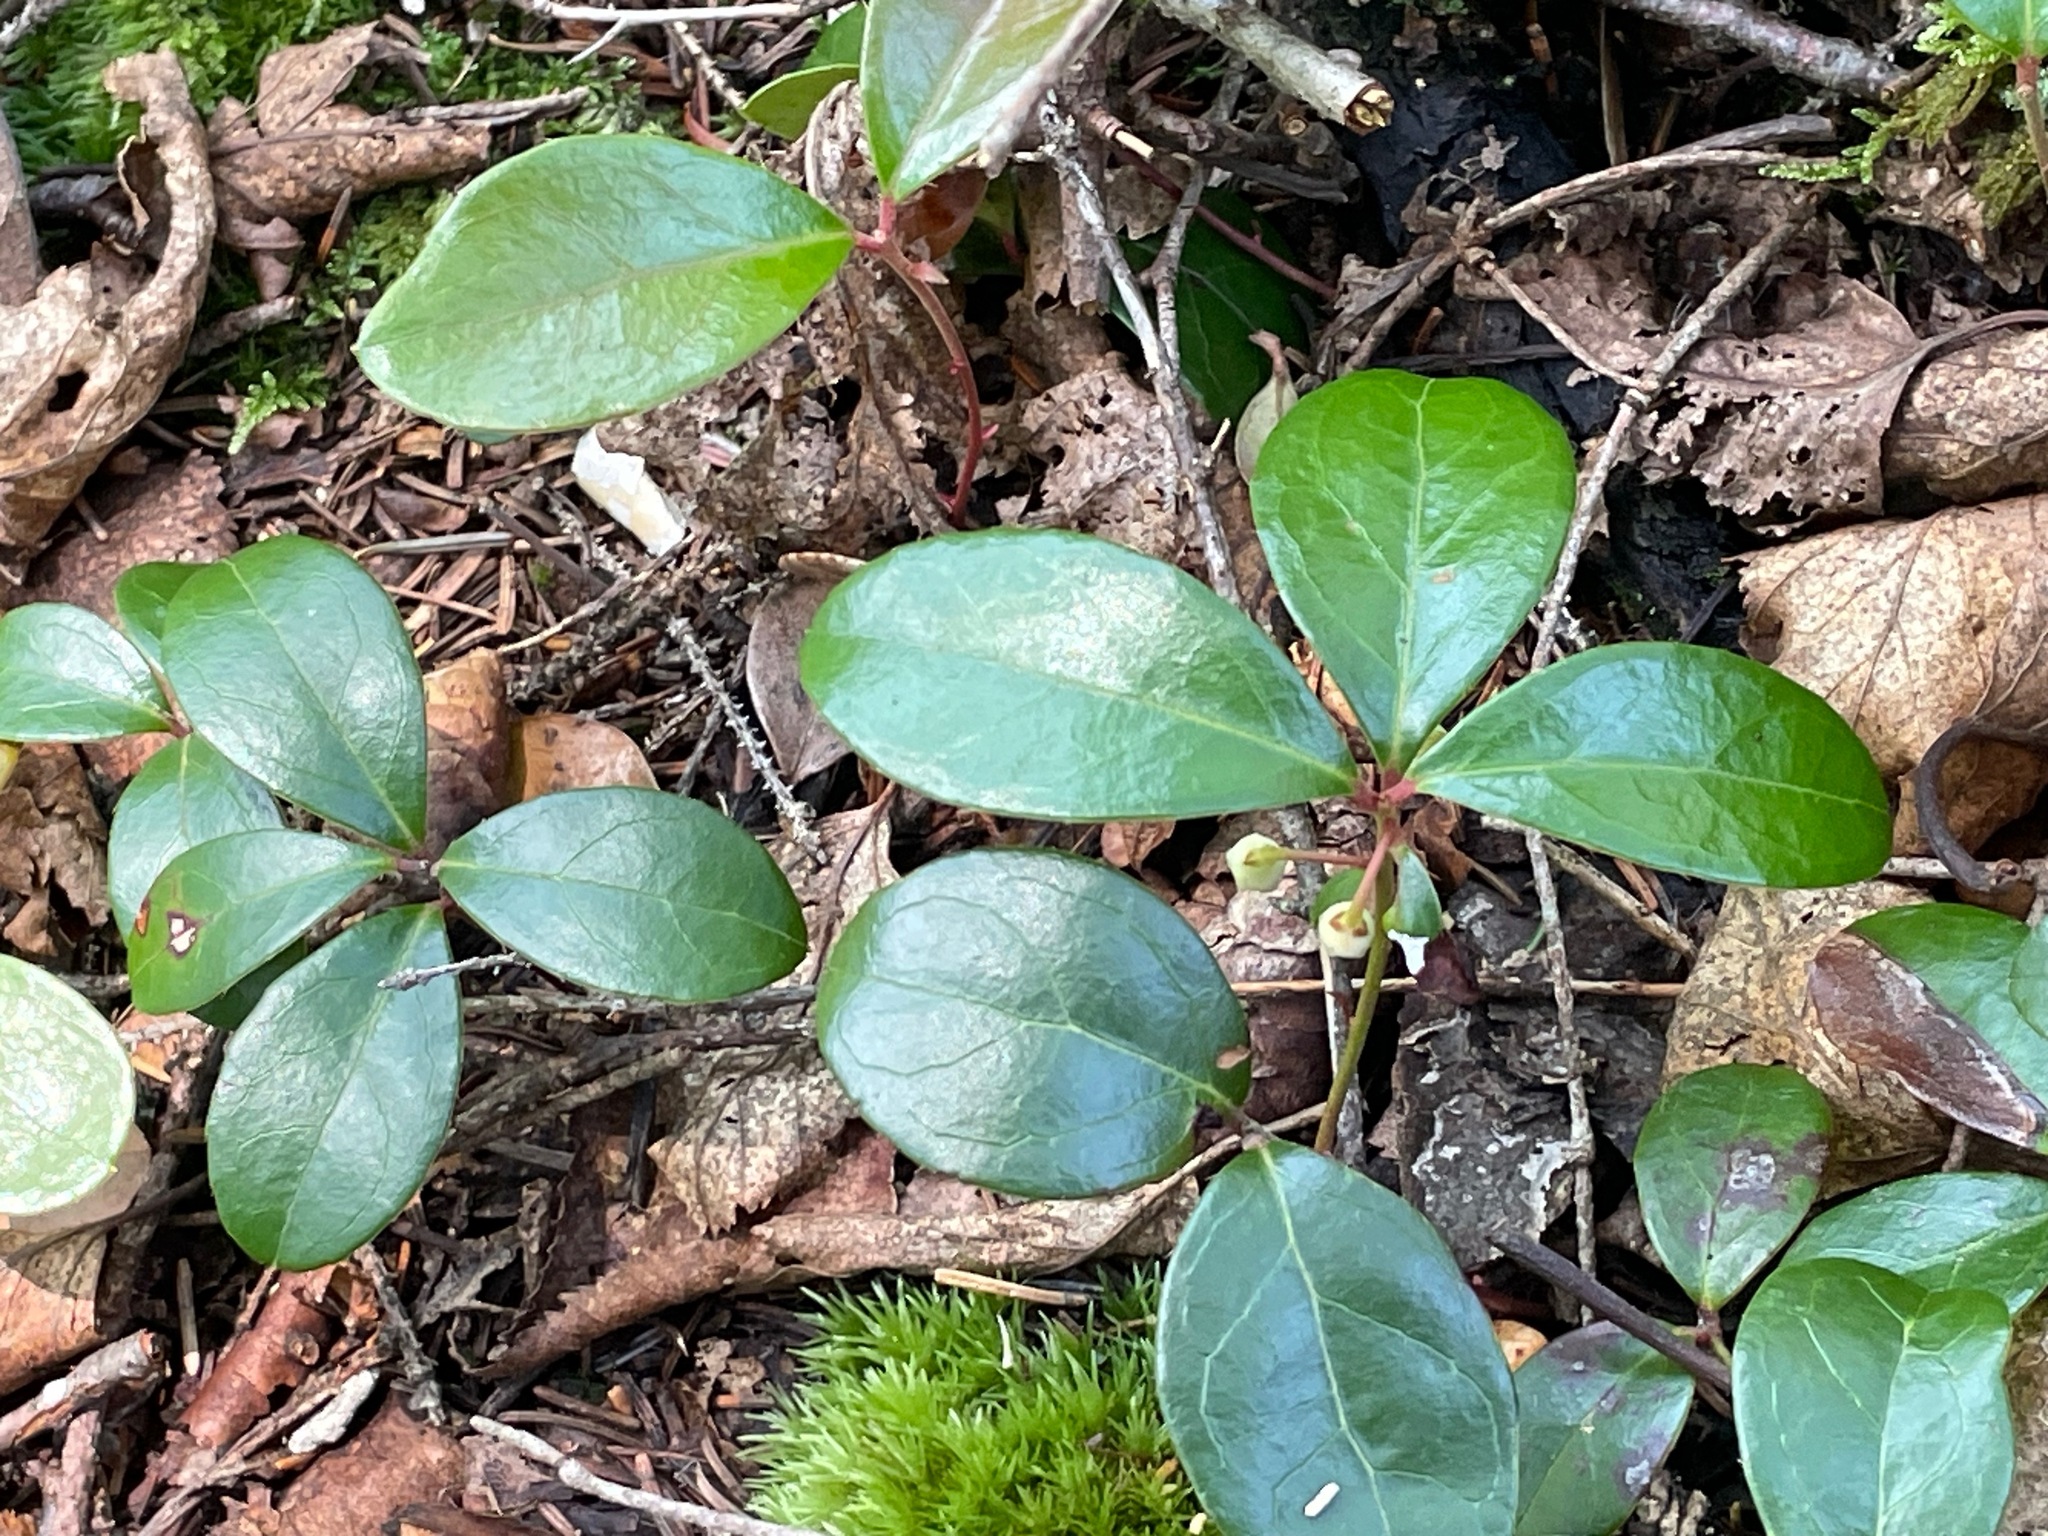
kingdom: Plantae
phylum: Tracheophyta
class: Magnoliopsida
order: Ericales
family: Ericaceae
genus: Gaultheria
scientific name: Gaultheria procumbens
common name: Checkerberry
